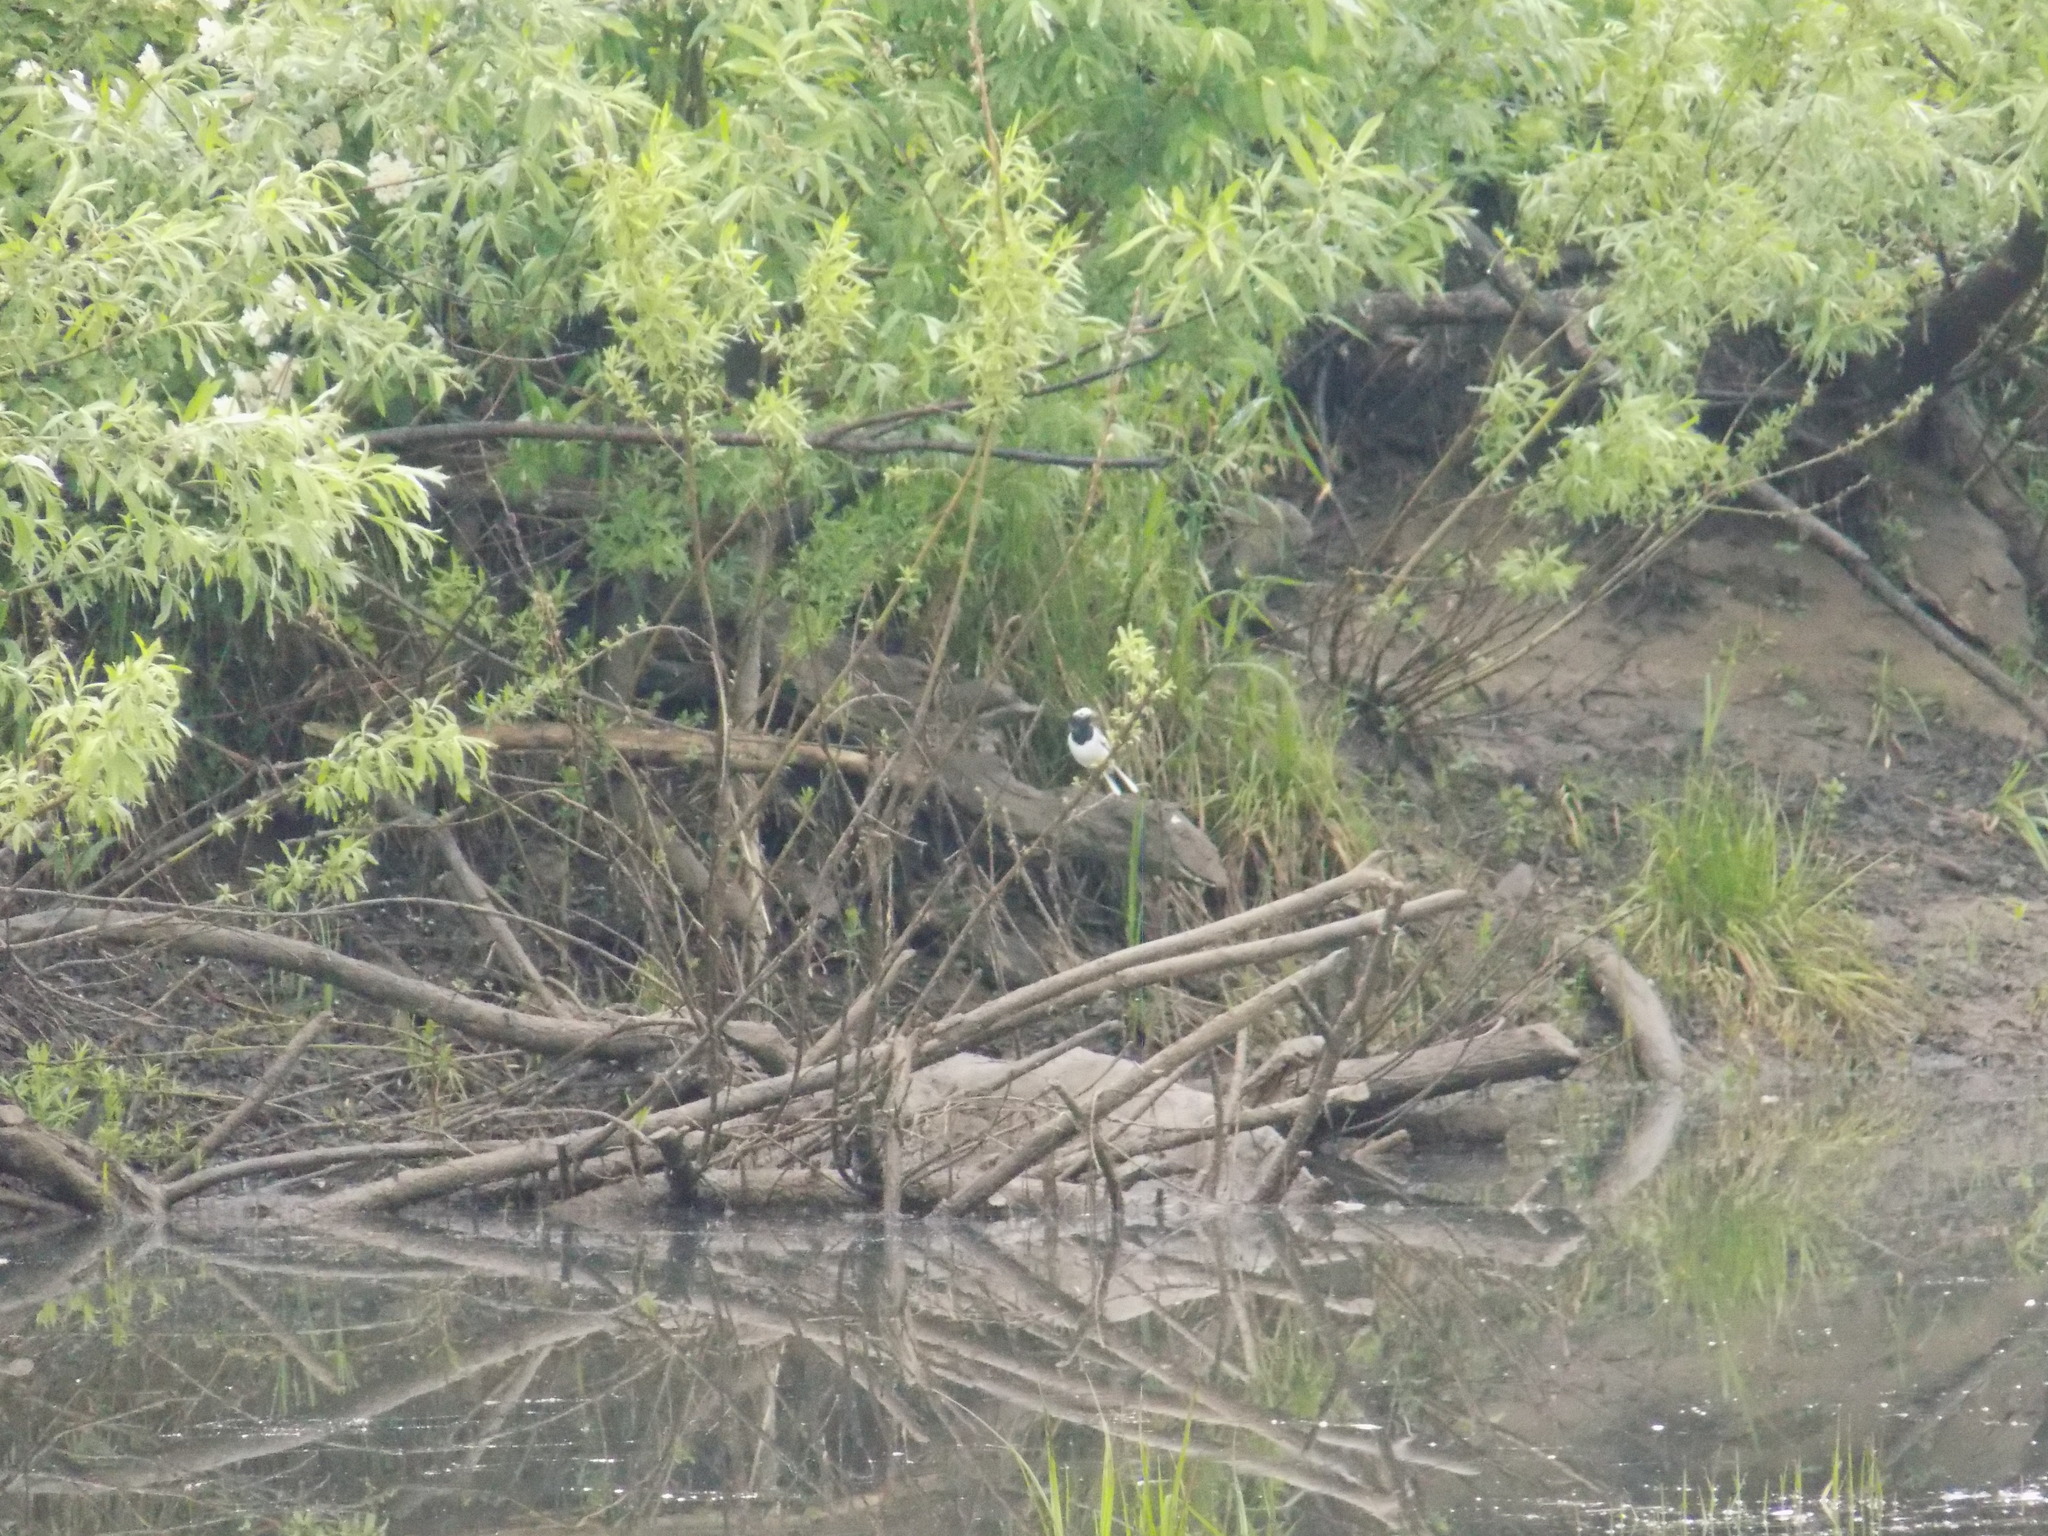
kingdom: Animalia
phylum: Chordata
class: Aves
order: Passeriformes
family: Motacillidae
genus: Motacilla
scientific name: Motacilla alba
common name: White wagtail
